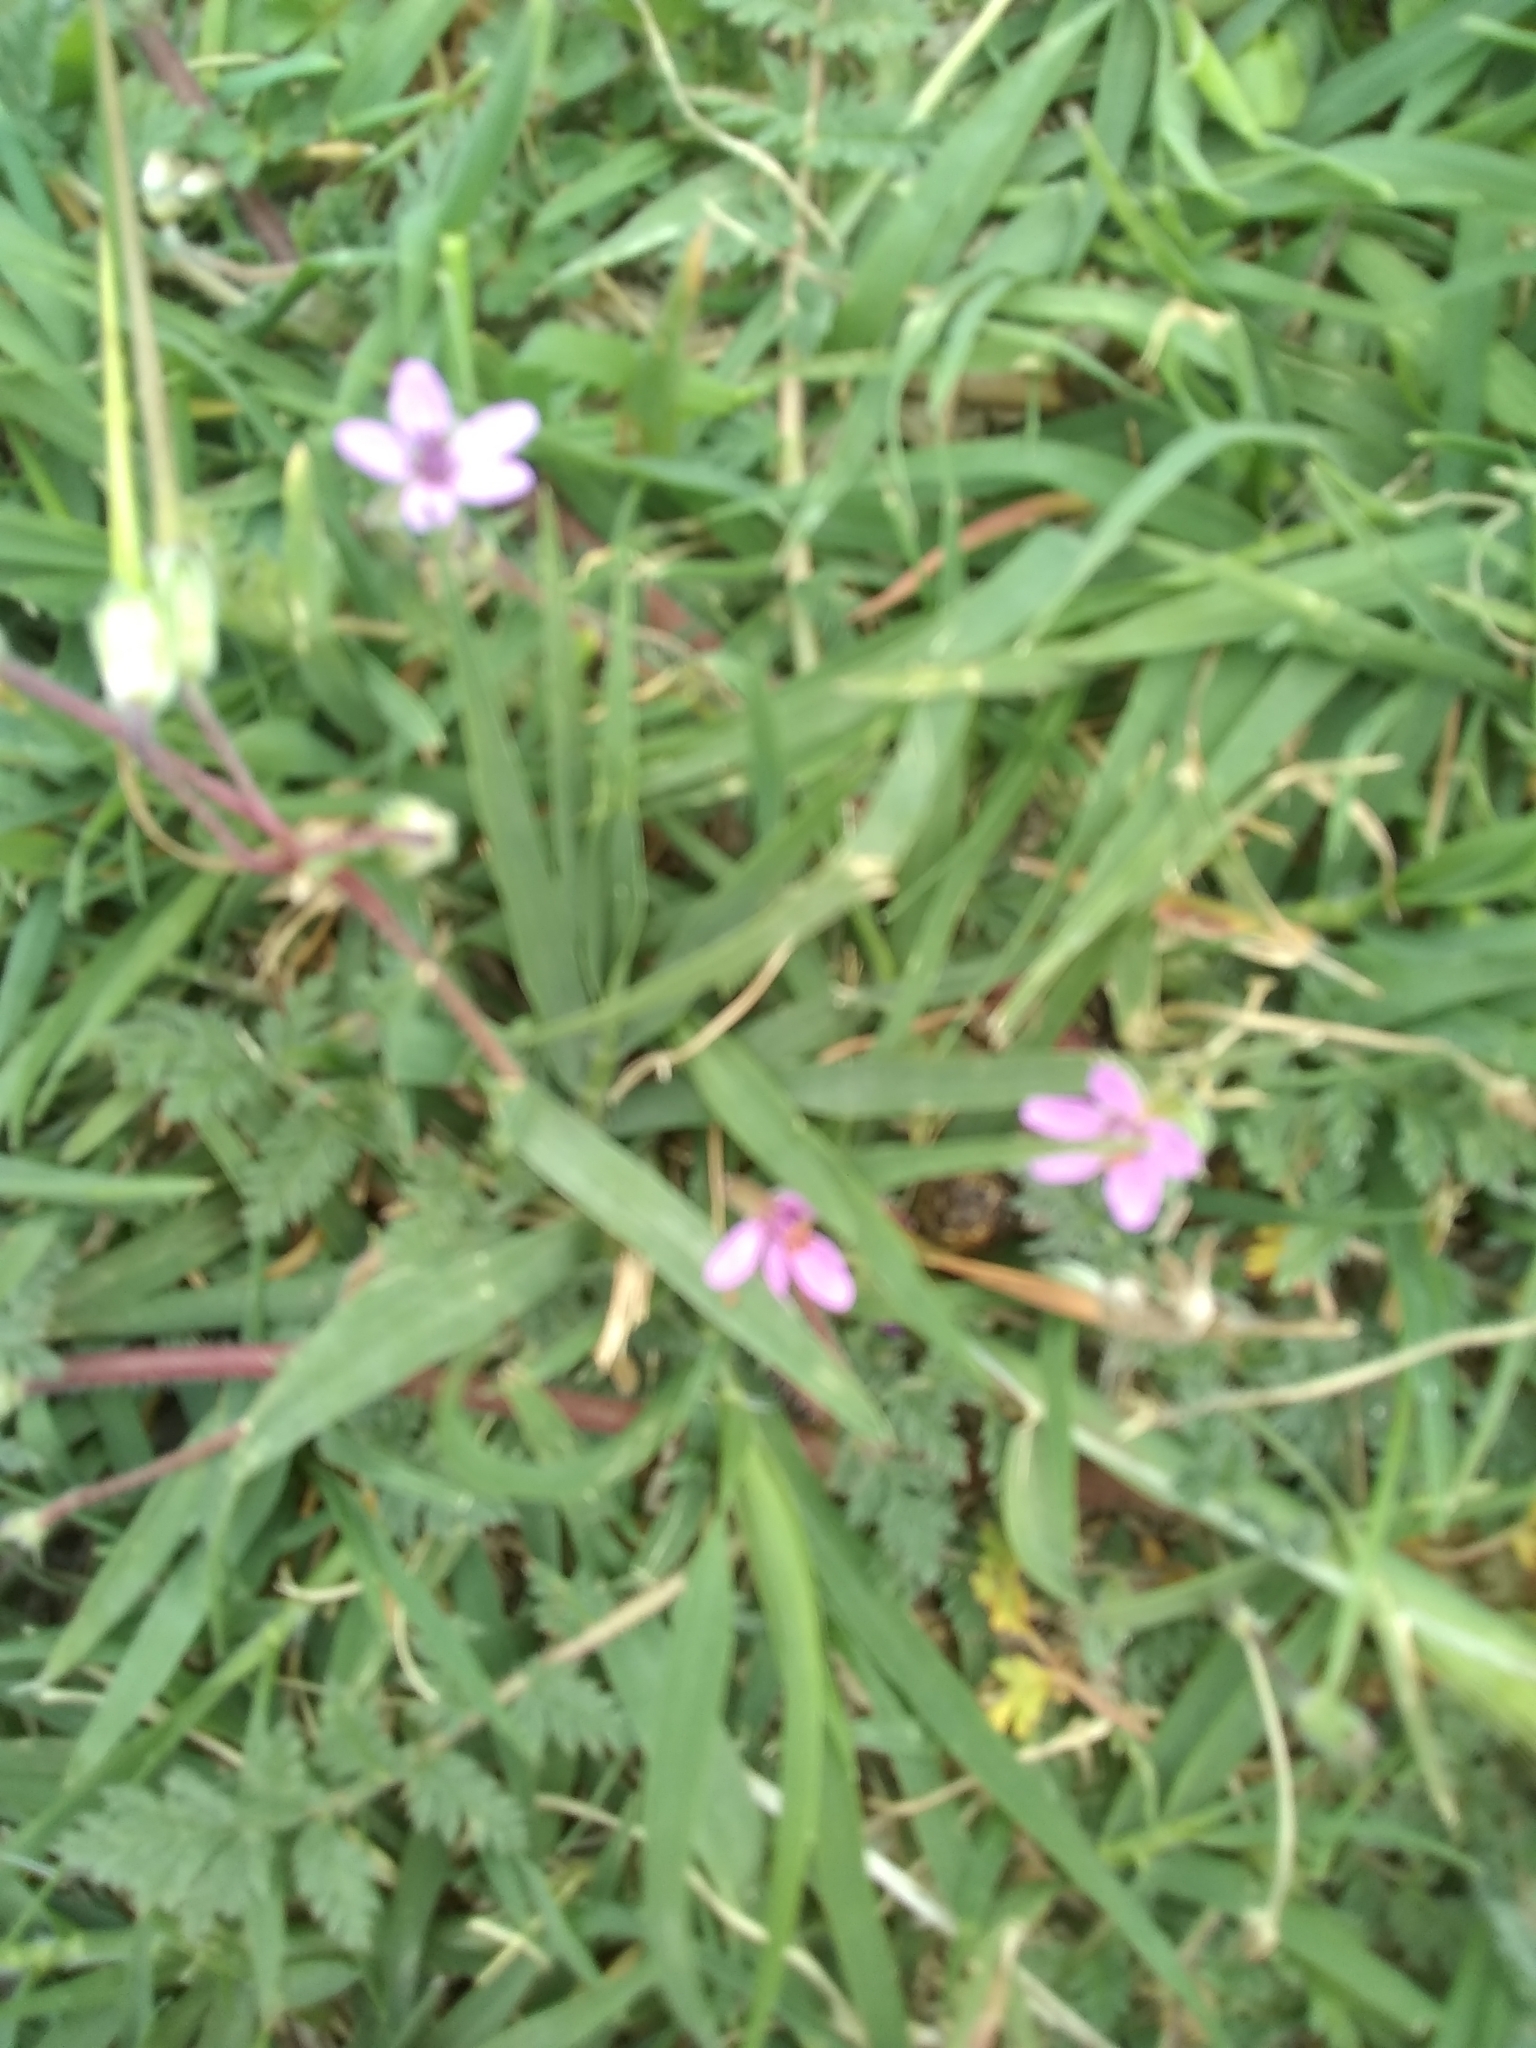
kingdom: Plantae
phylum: Tracheophyta
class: Magnoliopsida
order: Geraniales
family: Geraniaceae
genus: Erodium
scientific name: Erodium cicutarium
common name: Common stork's-bill
